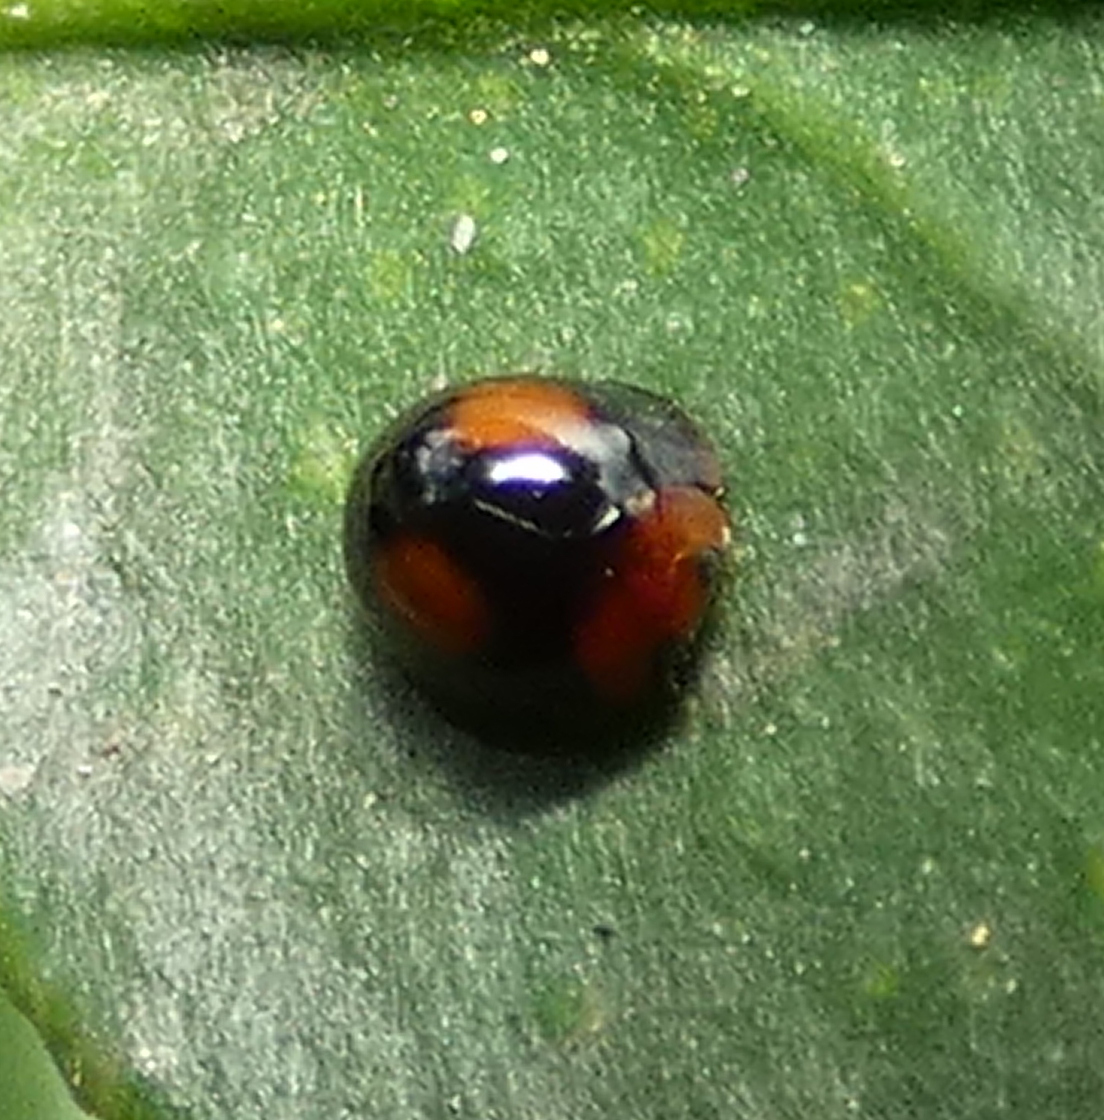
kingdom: Animalia
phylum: Arthropoda
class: Insecta
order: Coleoptera
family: Coccinellidae
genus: Cryptognatha
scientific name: Cryptognatha
